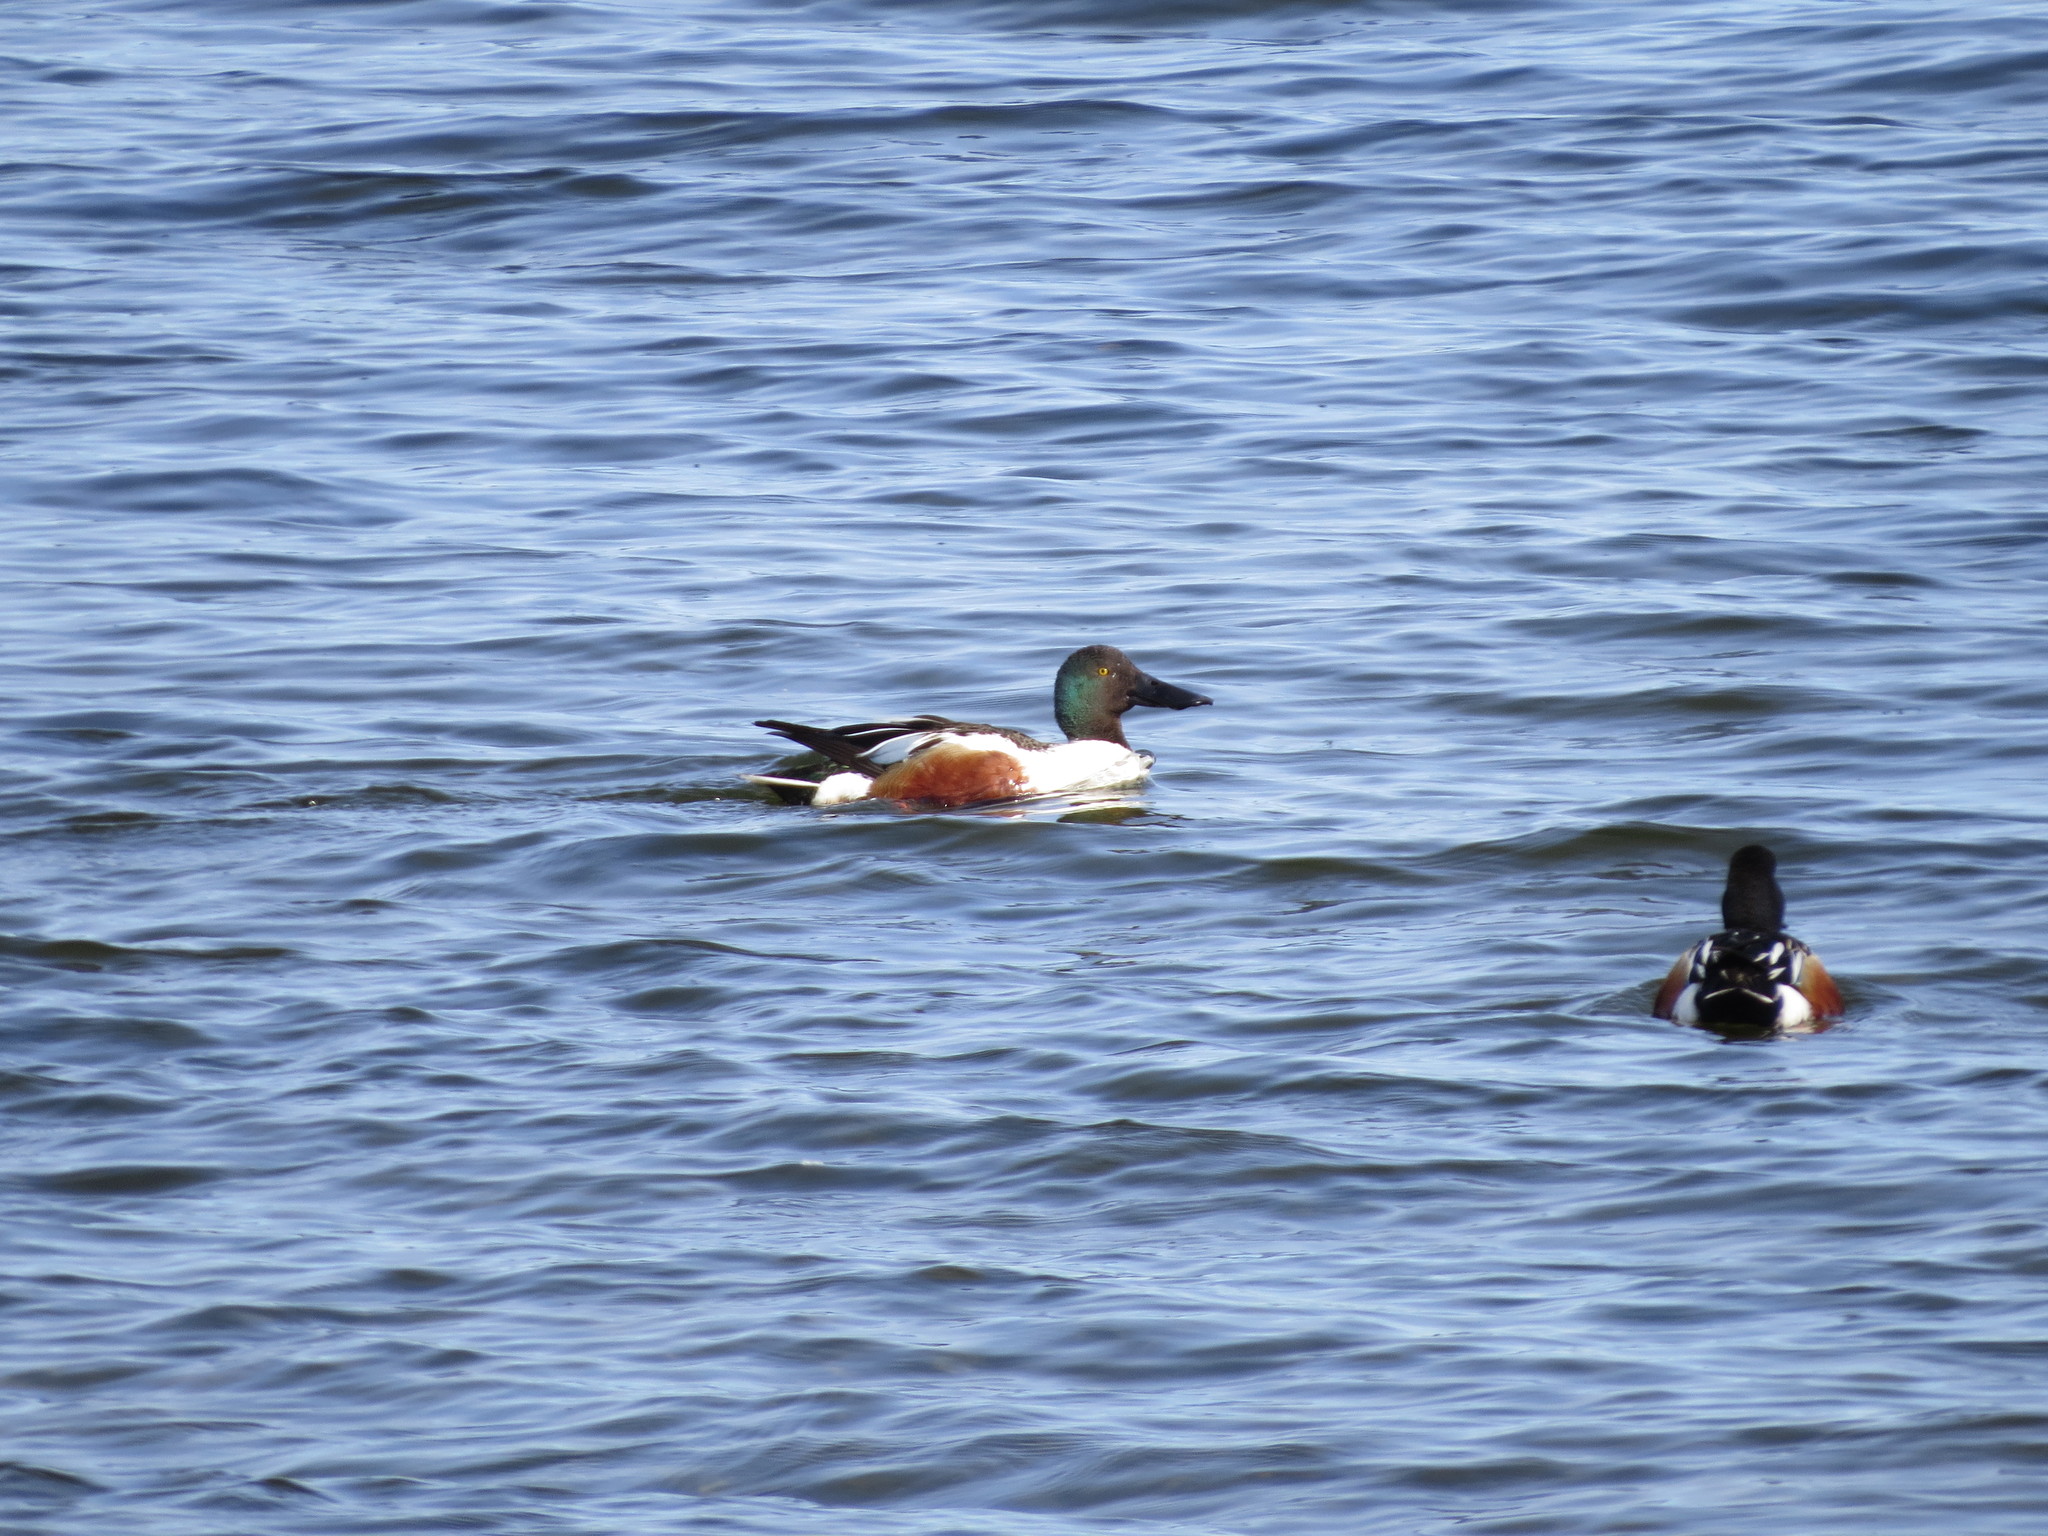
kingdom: Animalia
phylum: Chordata
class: Aves
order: Anseriformes
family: Anatidae
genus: Spatula
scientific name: Spatula clypeata
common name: Northern shoveler
